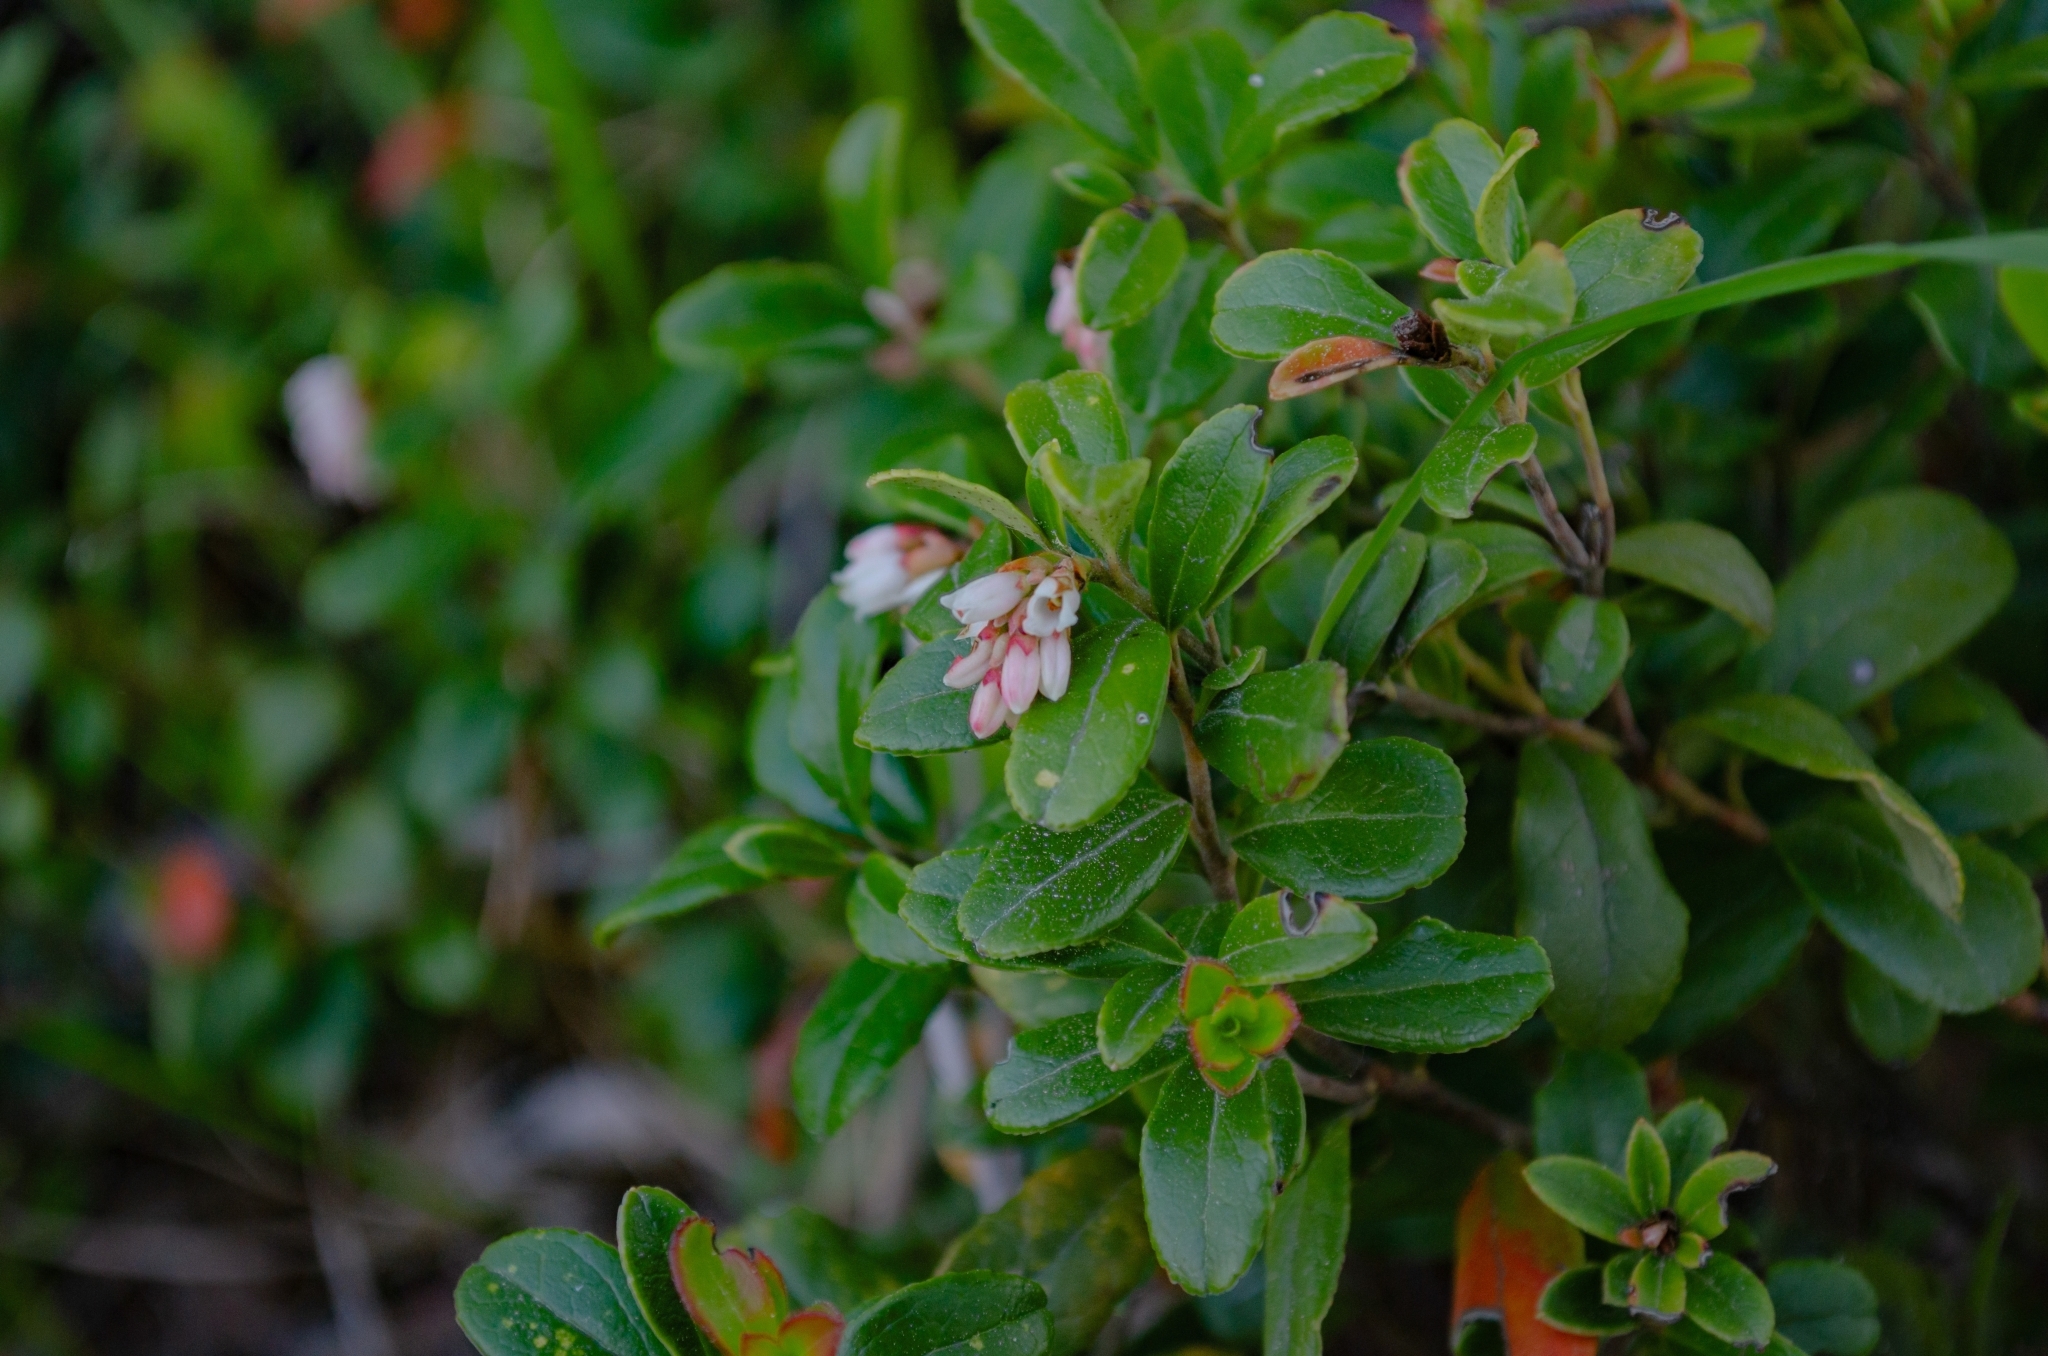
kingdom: Plantae
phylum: Tracheophyta
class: Magnoliopsida
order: Ericales
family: Ericaceae
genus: Vaccinium
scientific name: Vaccinium vitis-idaea
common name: Cowberry
